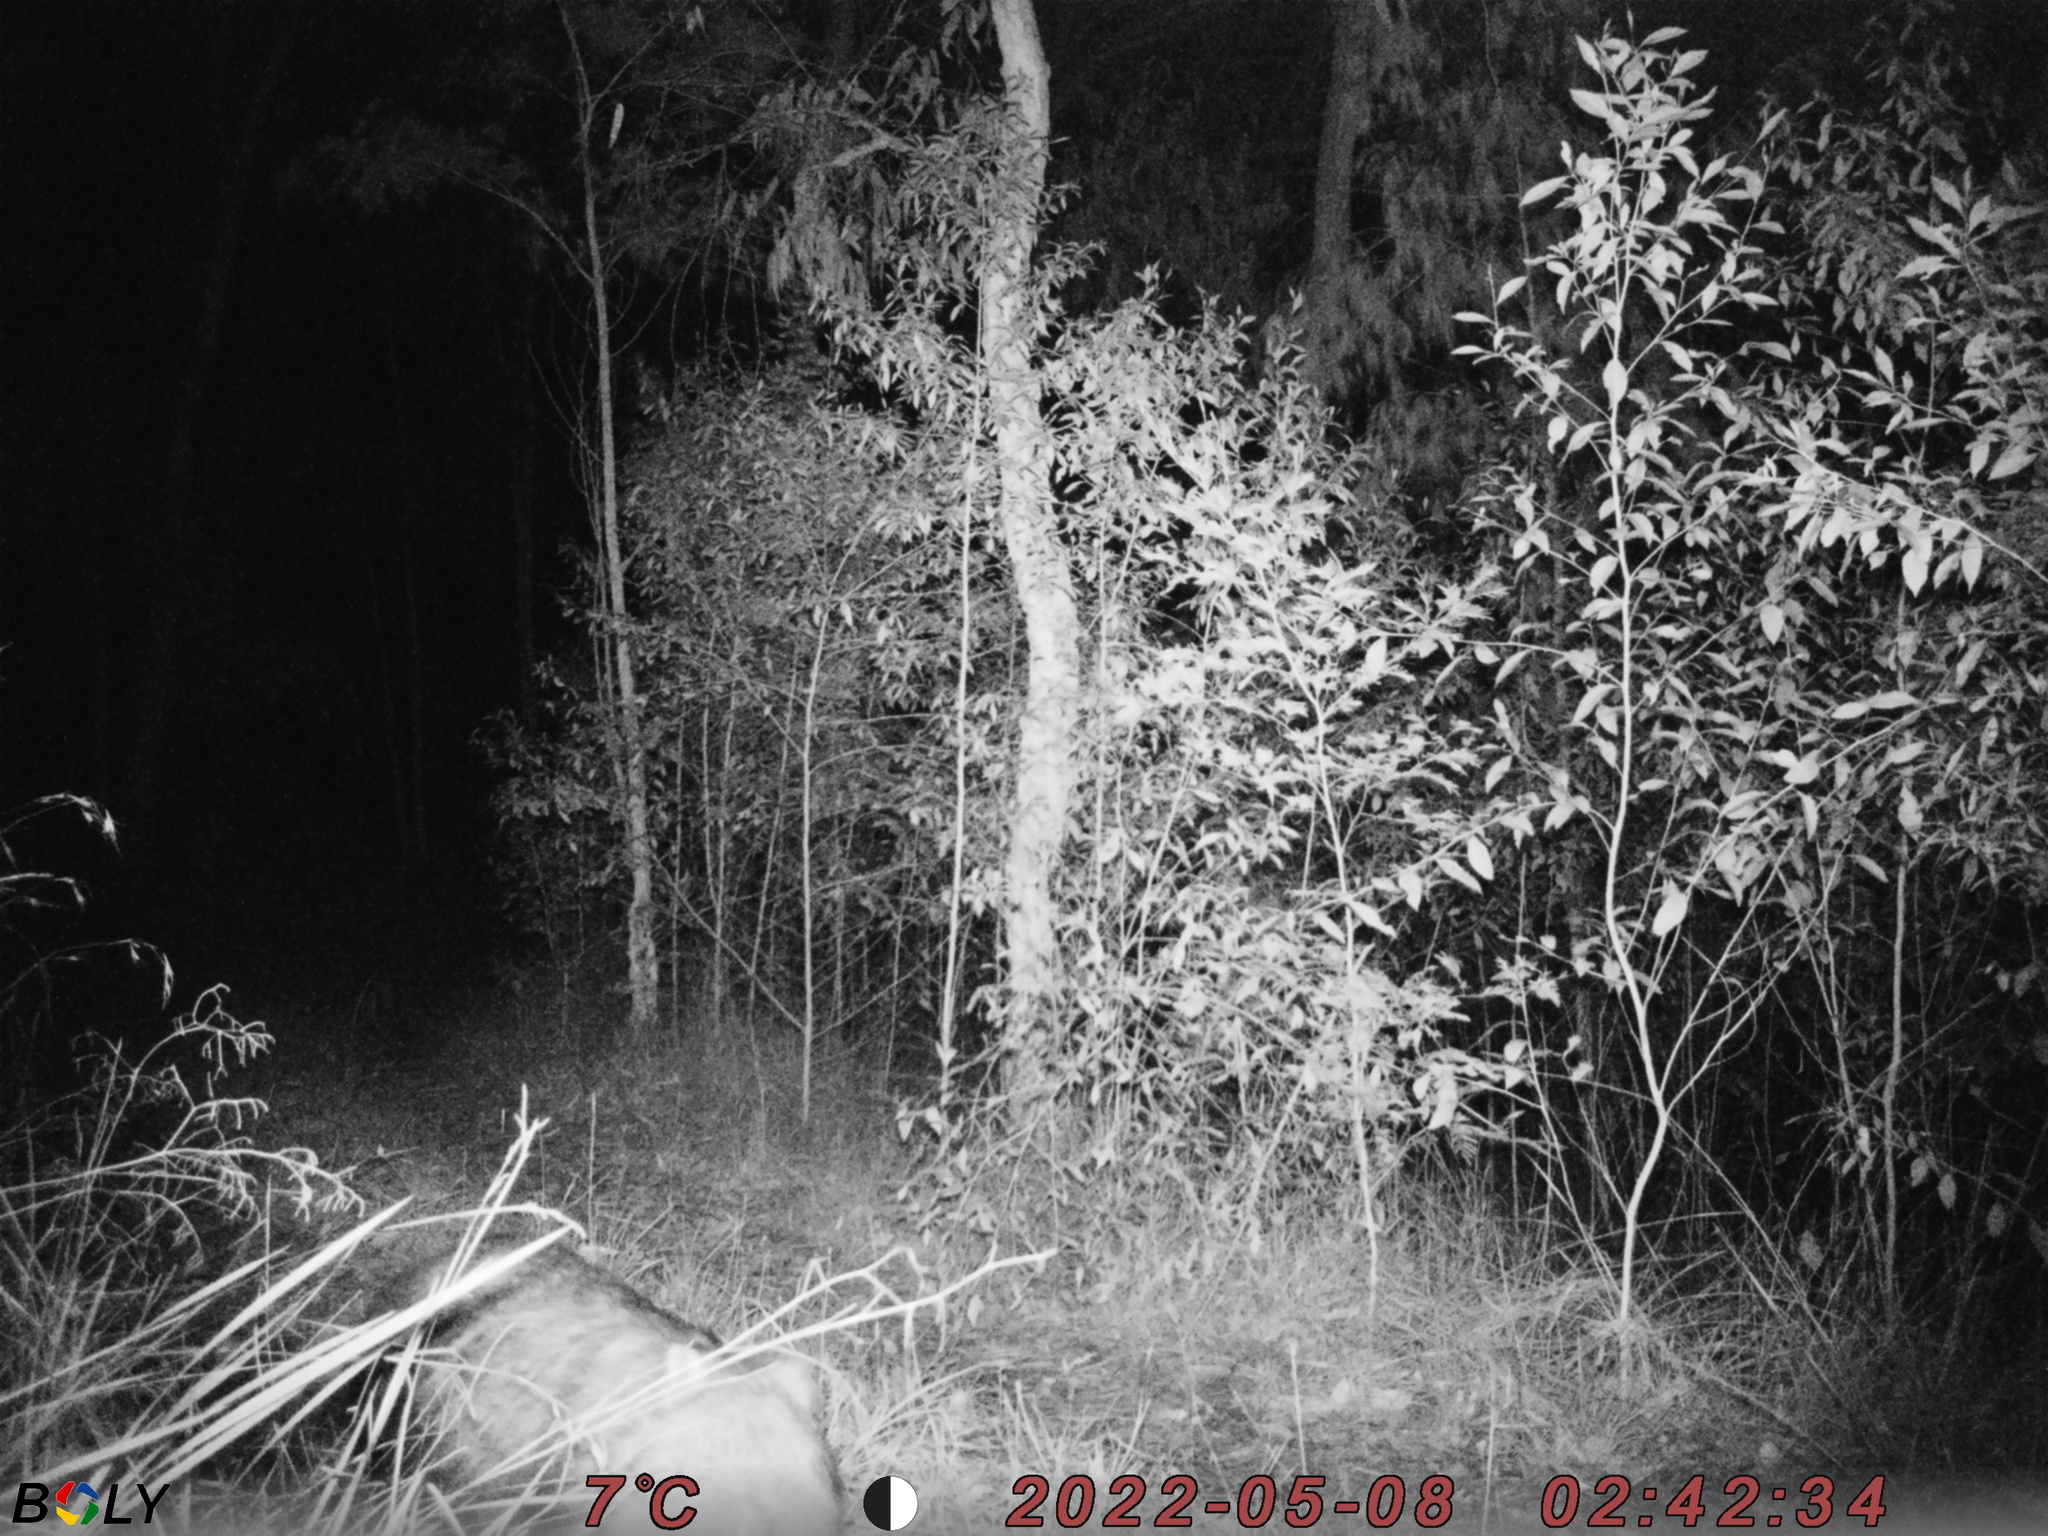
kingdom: Animalia
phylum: Chordata
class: Mammalia
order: Diprotodontia
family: Vombatidae
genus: Vombatus
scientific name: Vombatus ursinus
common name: Common wombat
